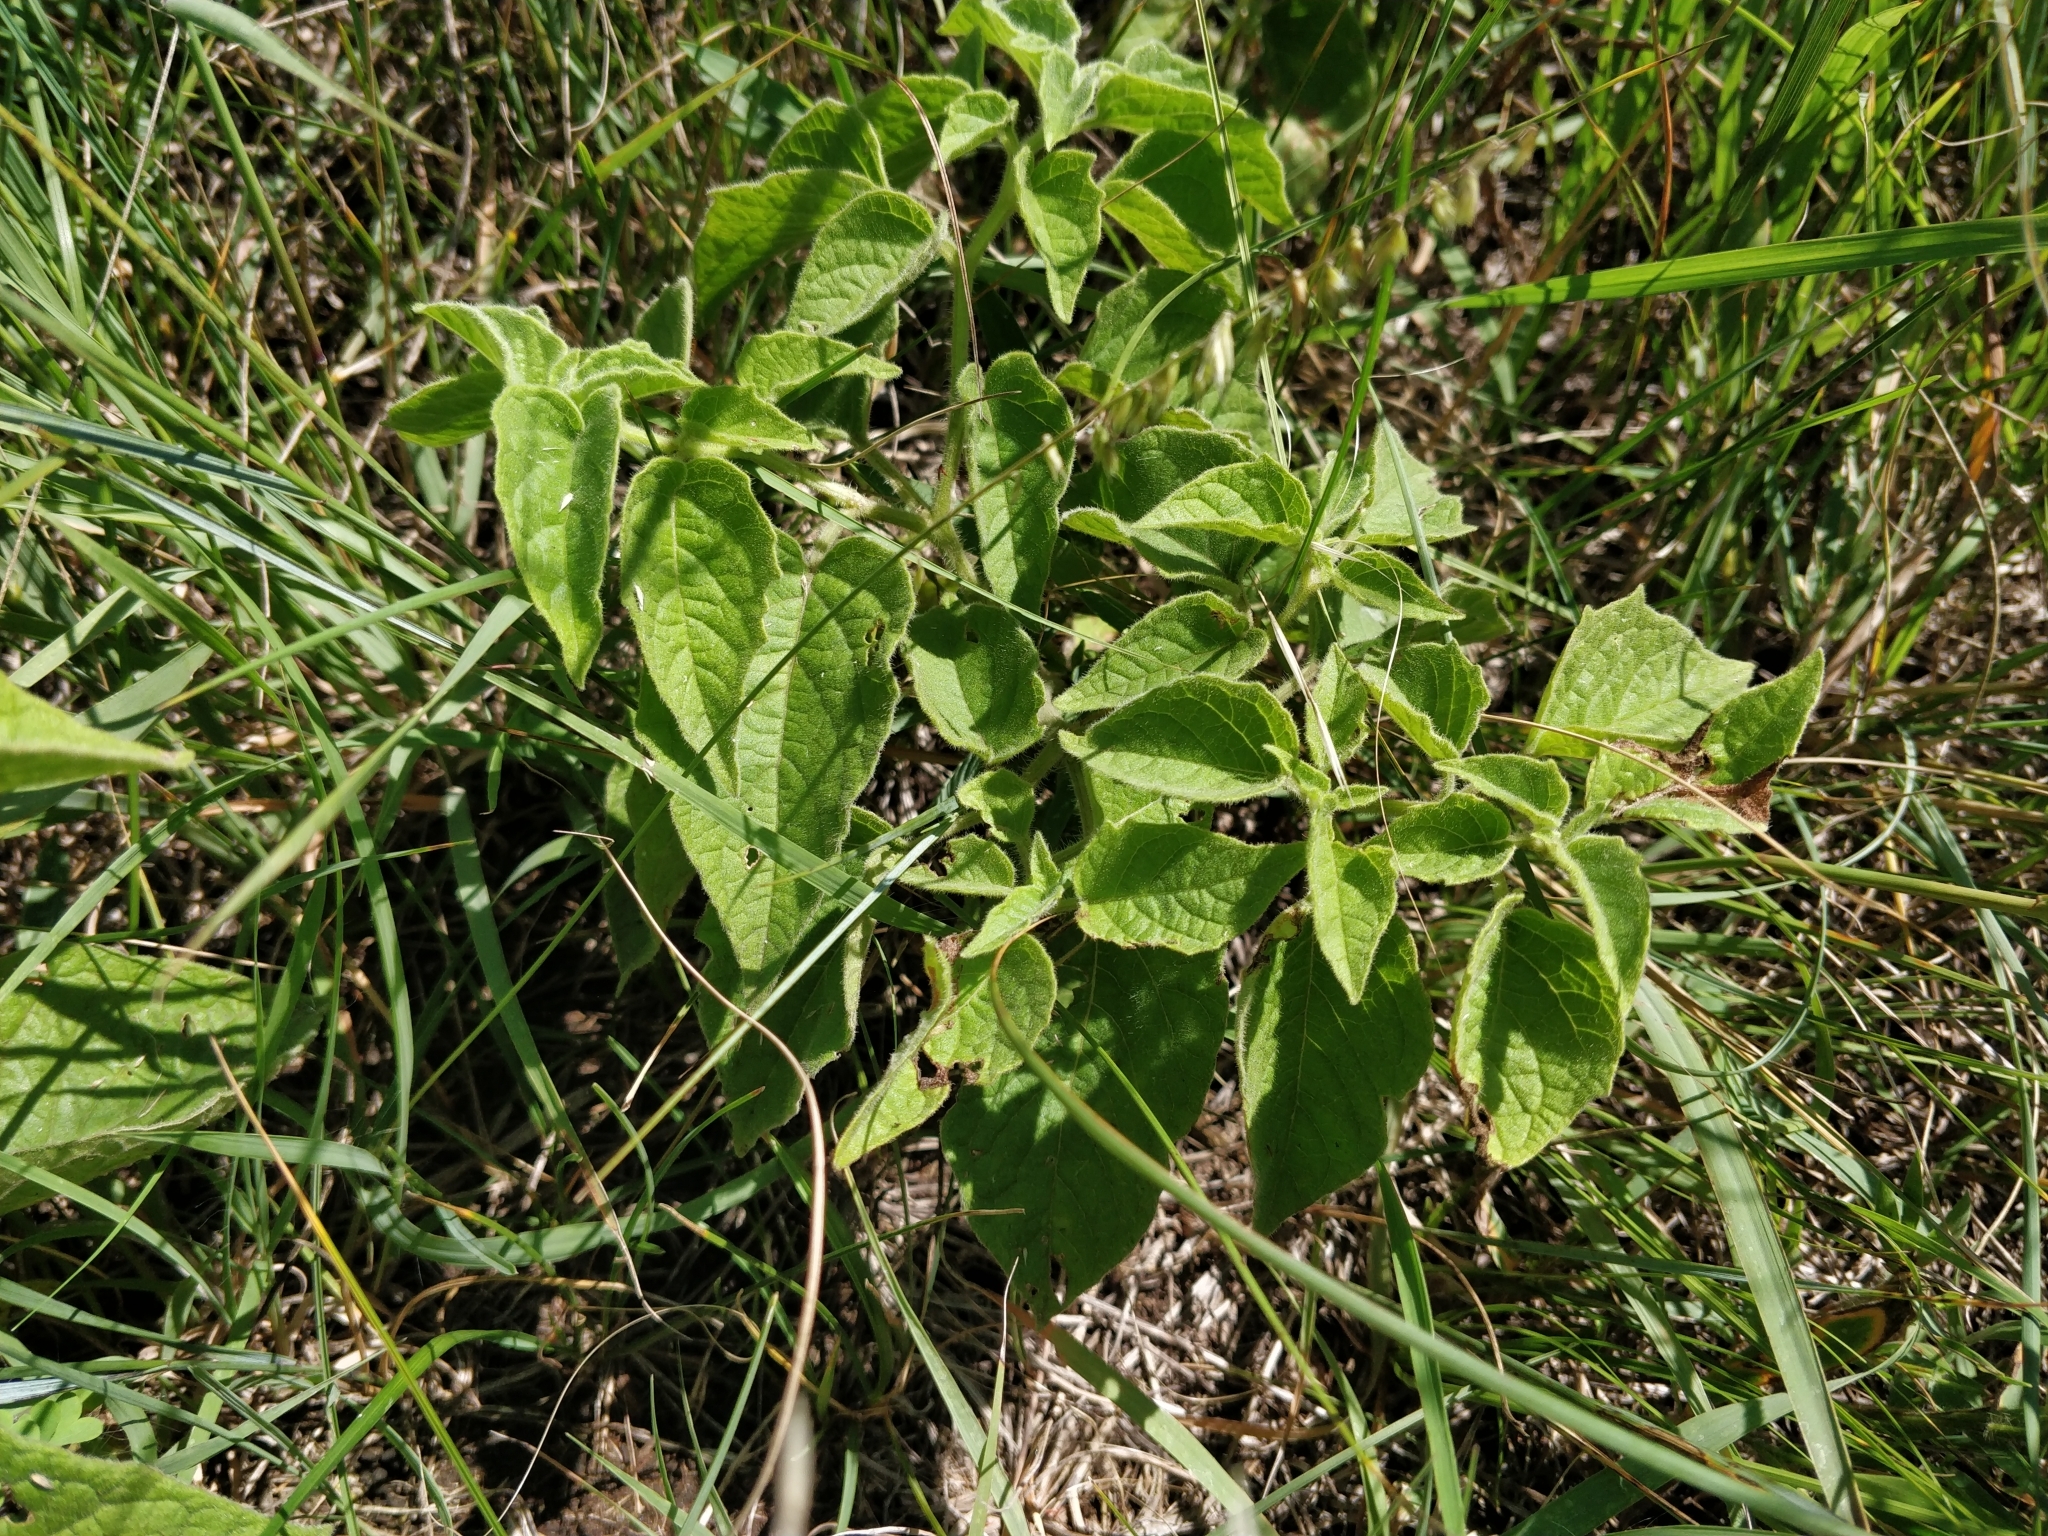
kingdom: Plantae
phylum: Tracheophyta
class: Magnoliopsida
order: Solanales
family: Solanaceae
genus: Physalis
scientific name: Physalis heterophylla
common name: Clammy ground-cherry
